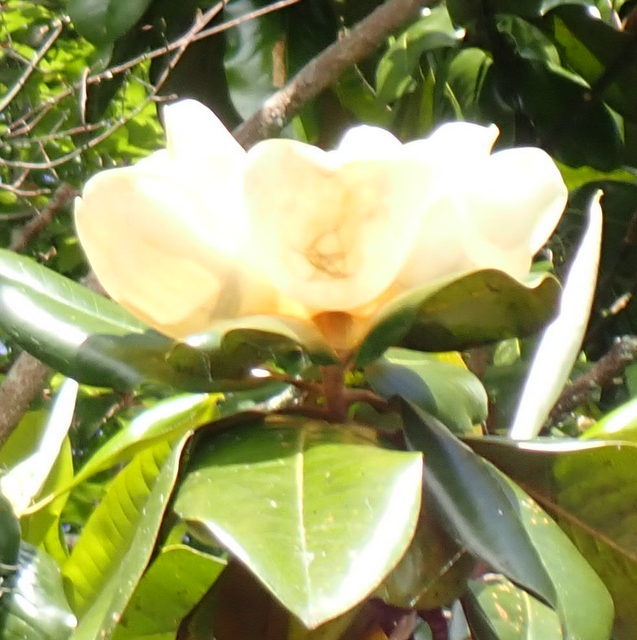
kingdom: Plantae
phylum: Tracheophyta
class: Magnoliopsida
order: Magnoliales
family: Magnoliaceae
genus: Magnolia
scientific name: Magnolia grandiflora
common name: Southern magnolia
